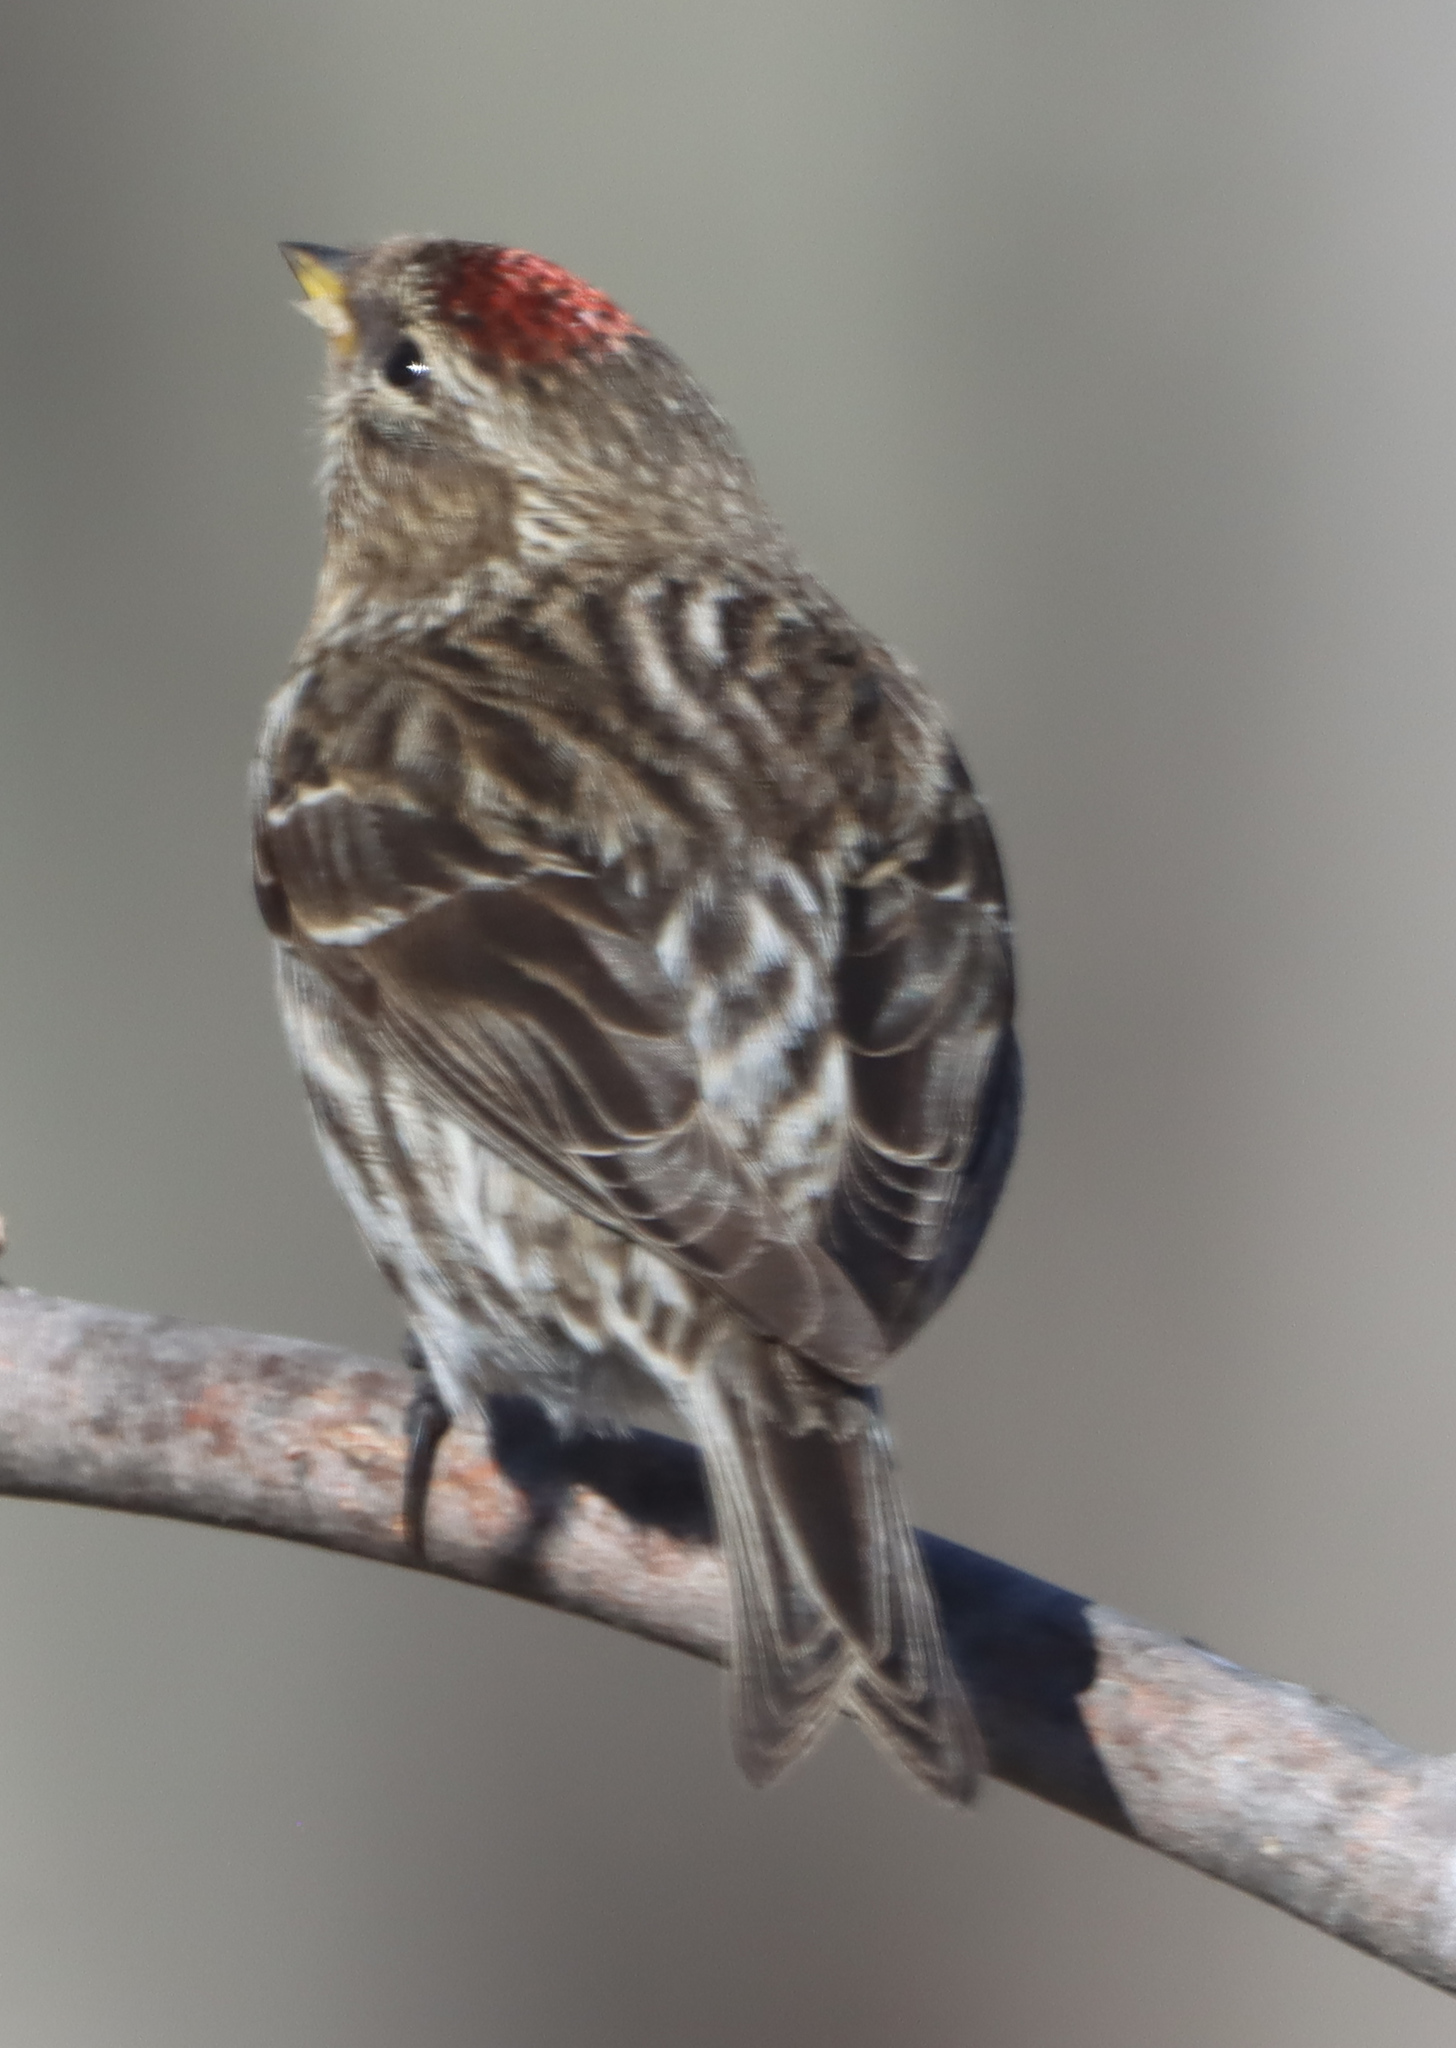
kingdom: Animalia
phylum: Chordata
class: Aves
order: Passeriformes
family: Fringillidae
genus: Acanthis
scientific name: Acanthis flammea
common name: Common redpoll
